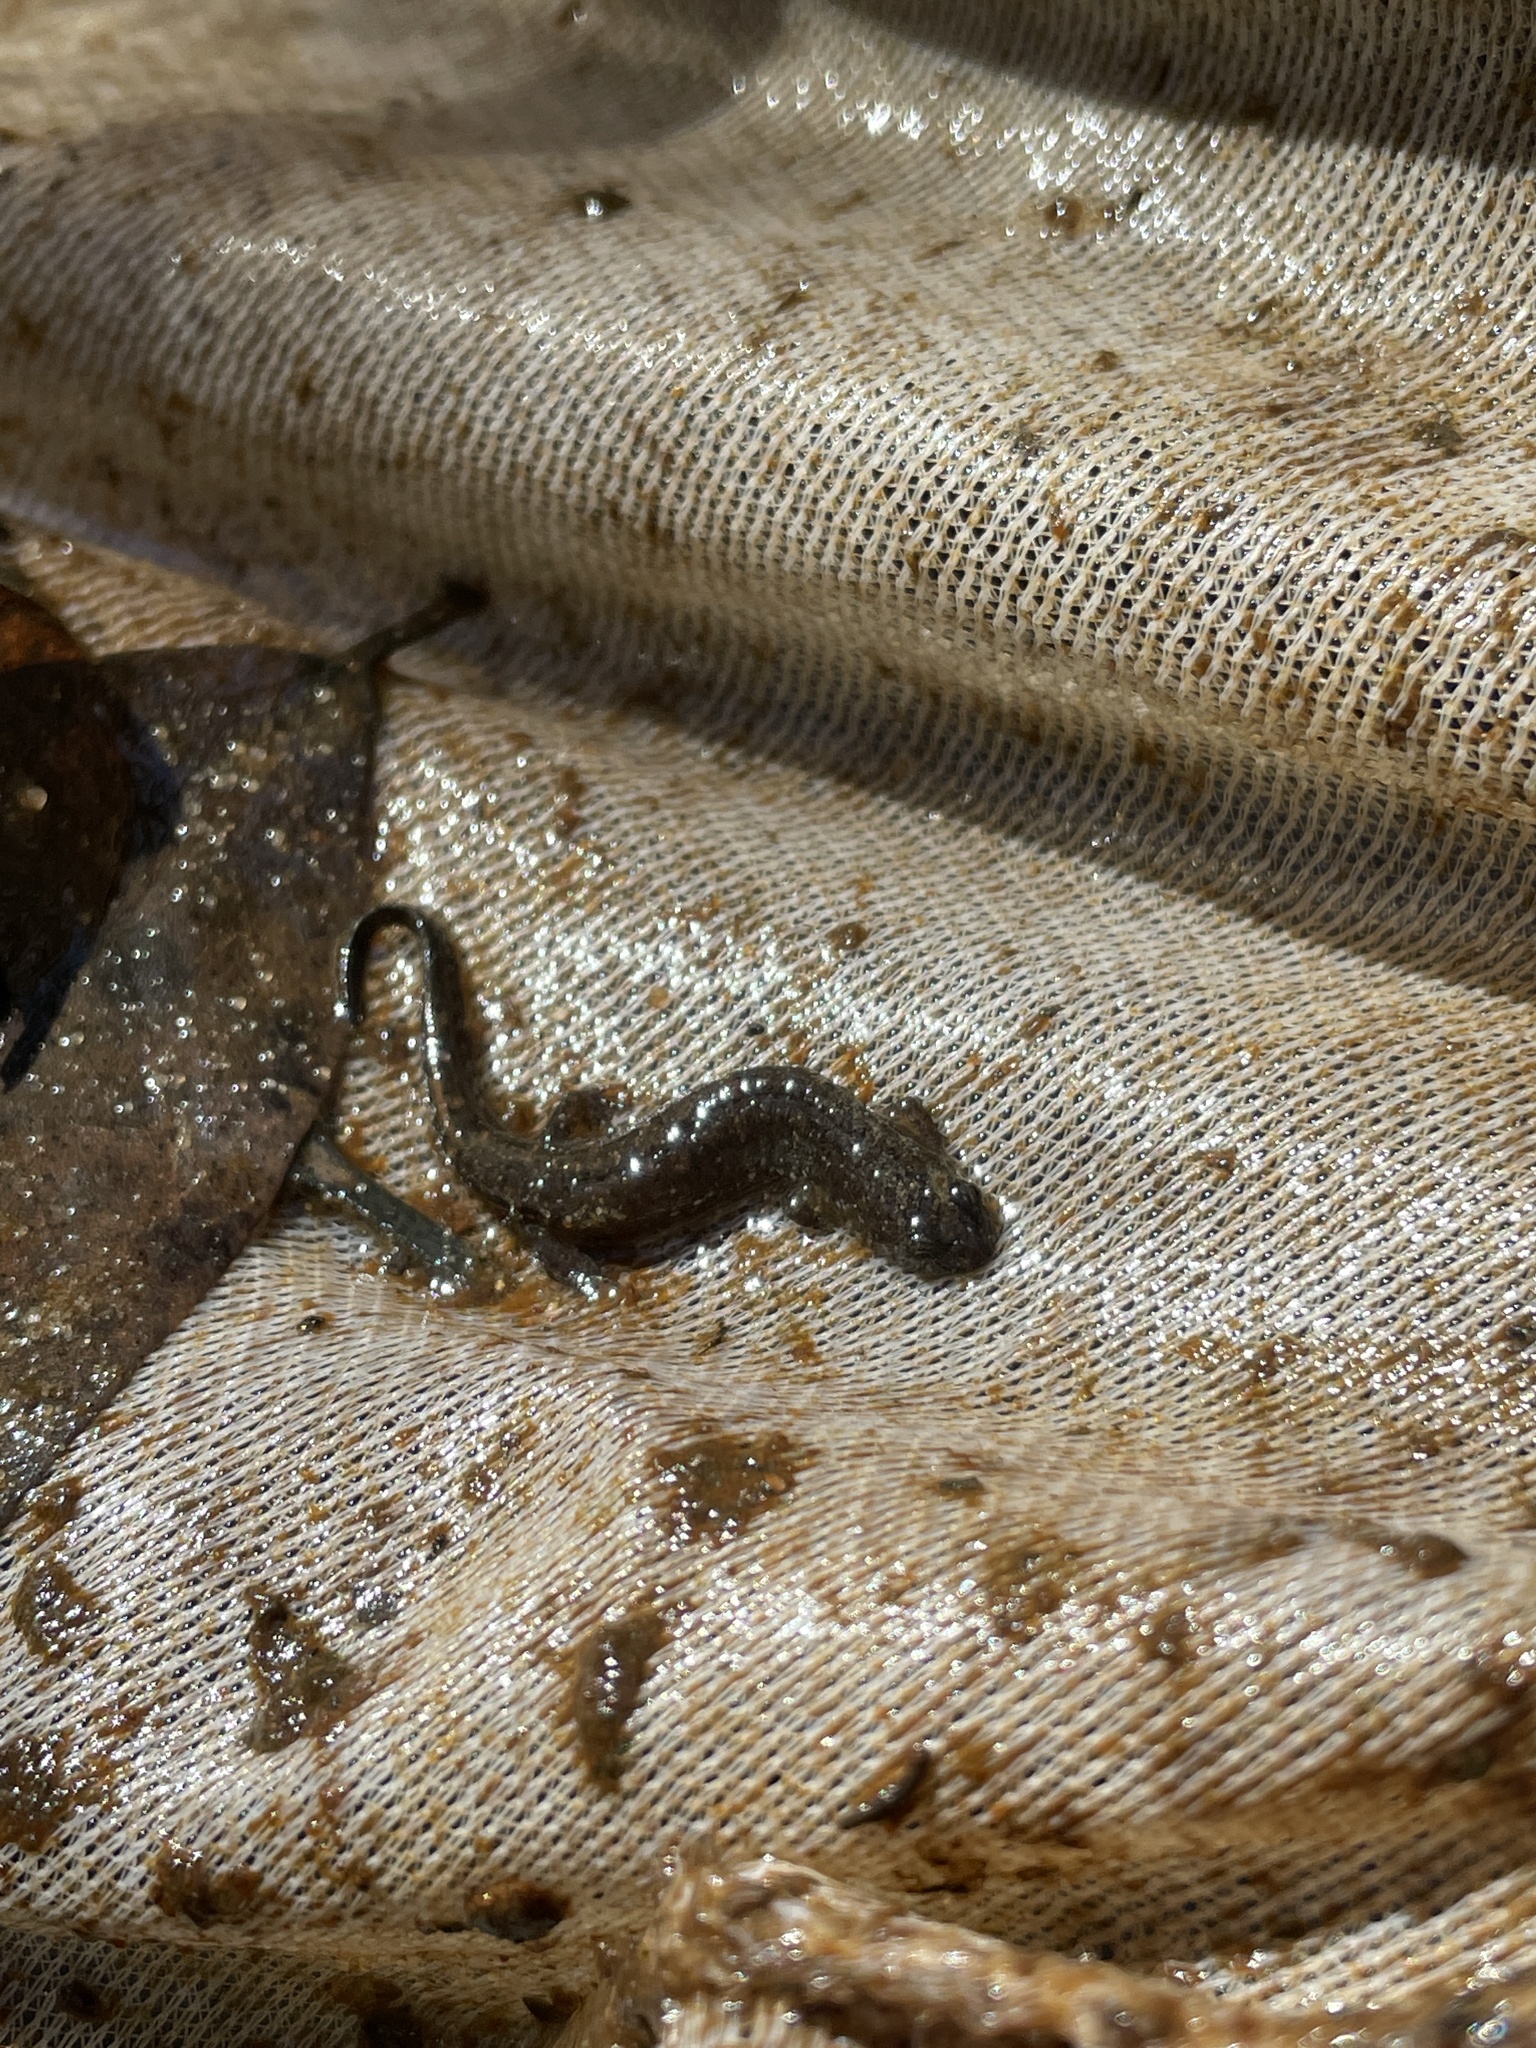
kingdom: Animalia
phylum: Chordata
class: Amphibia
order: Caudata
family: Plethodontidae
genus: Desmognathus
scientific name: Desmognathus valentinei
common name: Valentine's southern dusky salamander
